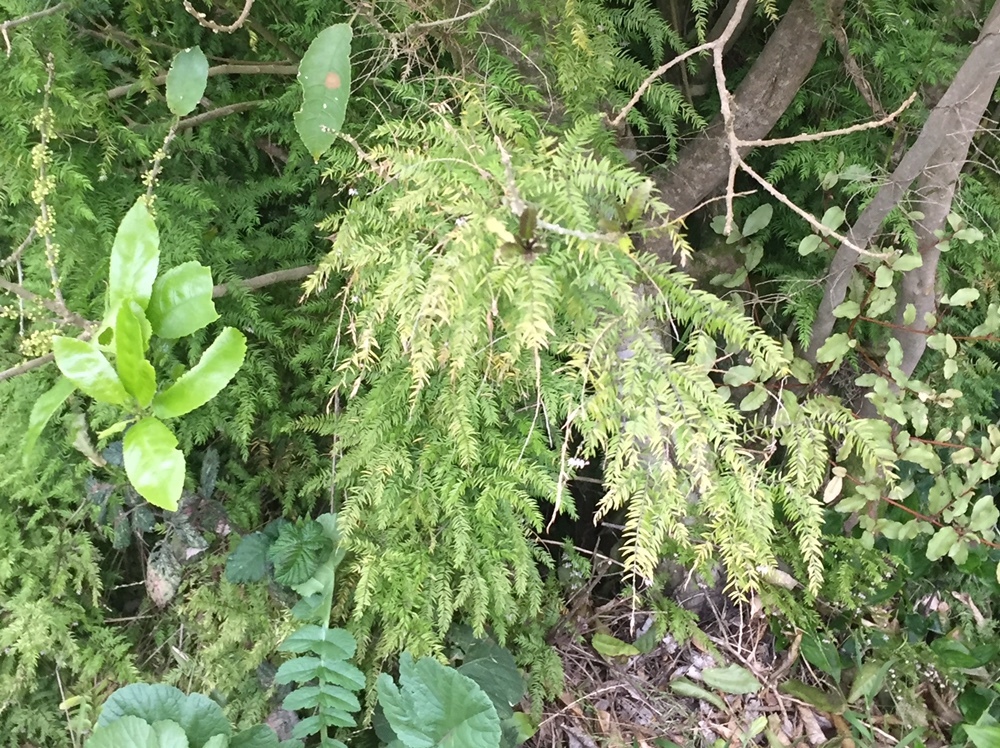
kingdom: Plantae
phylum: Tracheophyta
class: Liliopsida
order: Asparagales
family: Asparagaceae
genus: Asparagus
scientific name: Asparagus scandens
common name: Asparagus-fern
